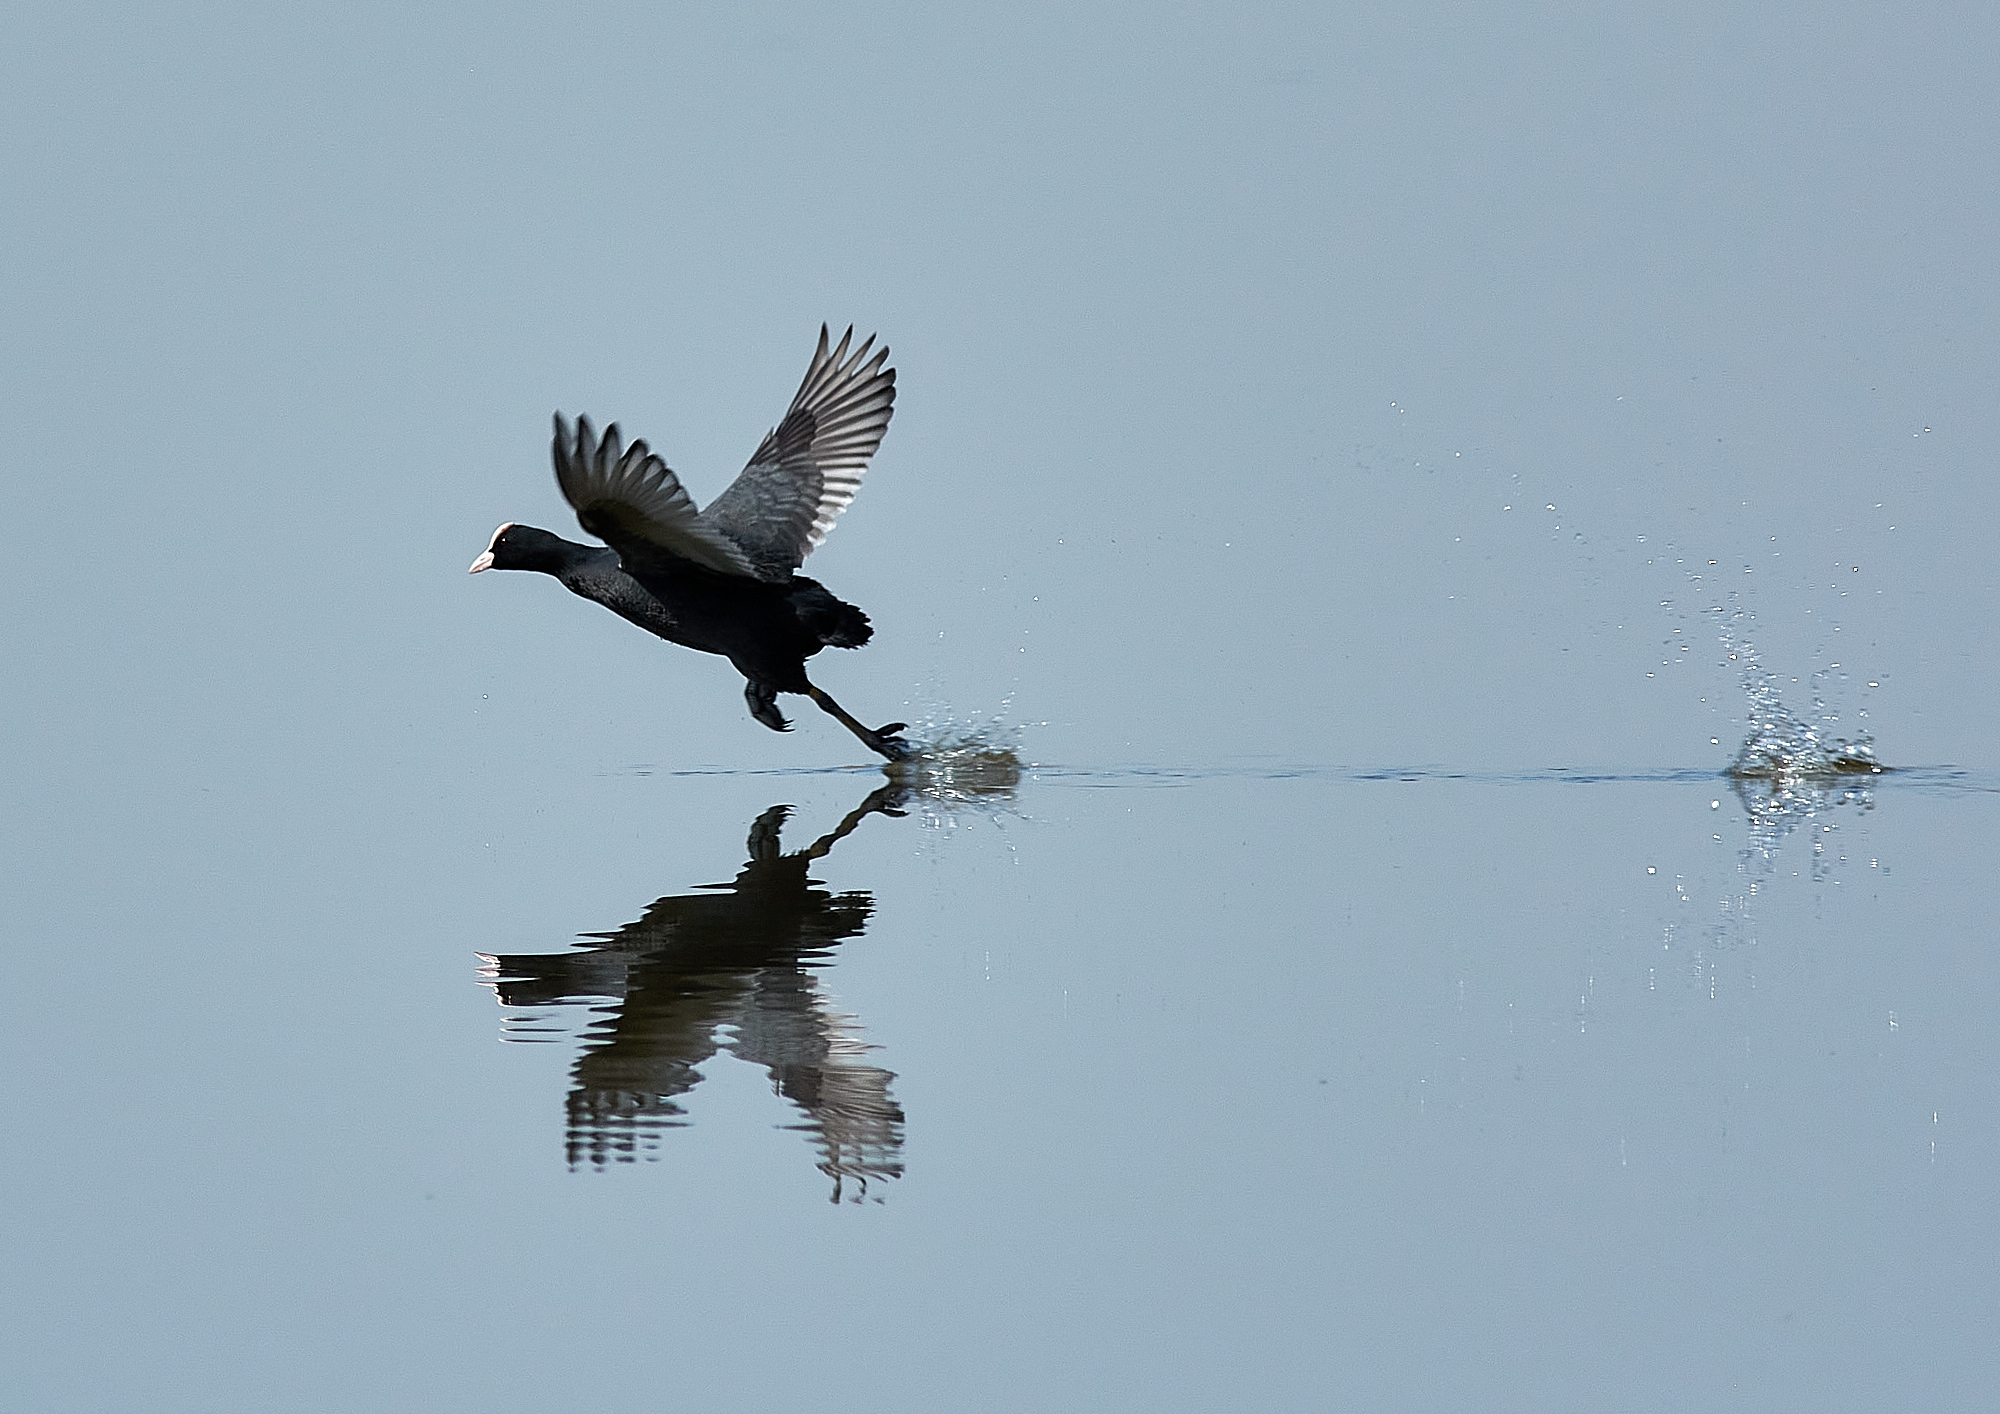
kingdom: Animalia
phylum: Chordata
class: Aves
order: Gruiformes
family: Rallidae
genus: Fulica
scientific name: Fulica atra
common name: Eurasian coot
